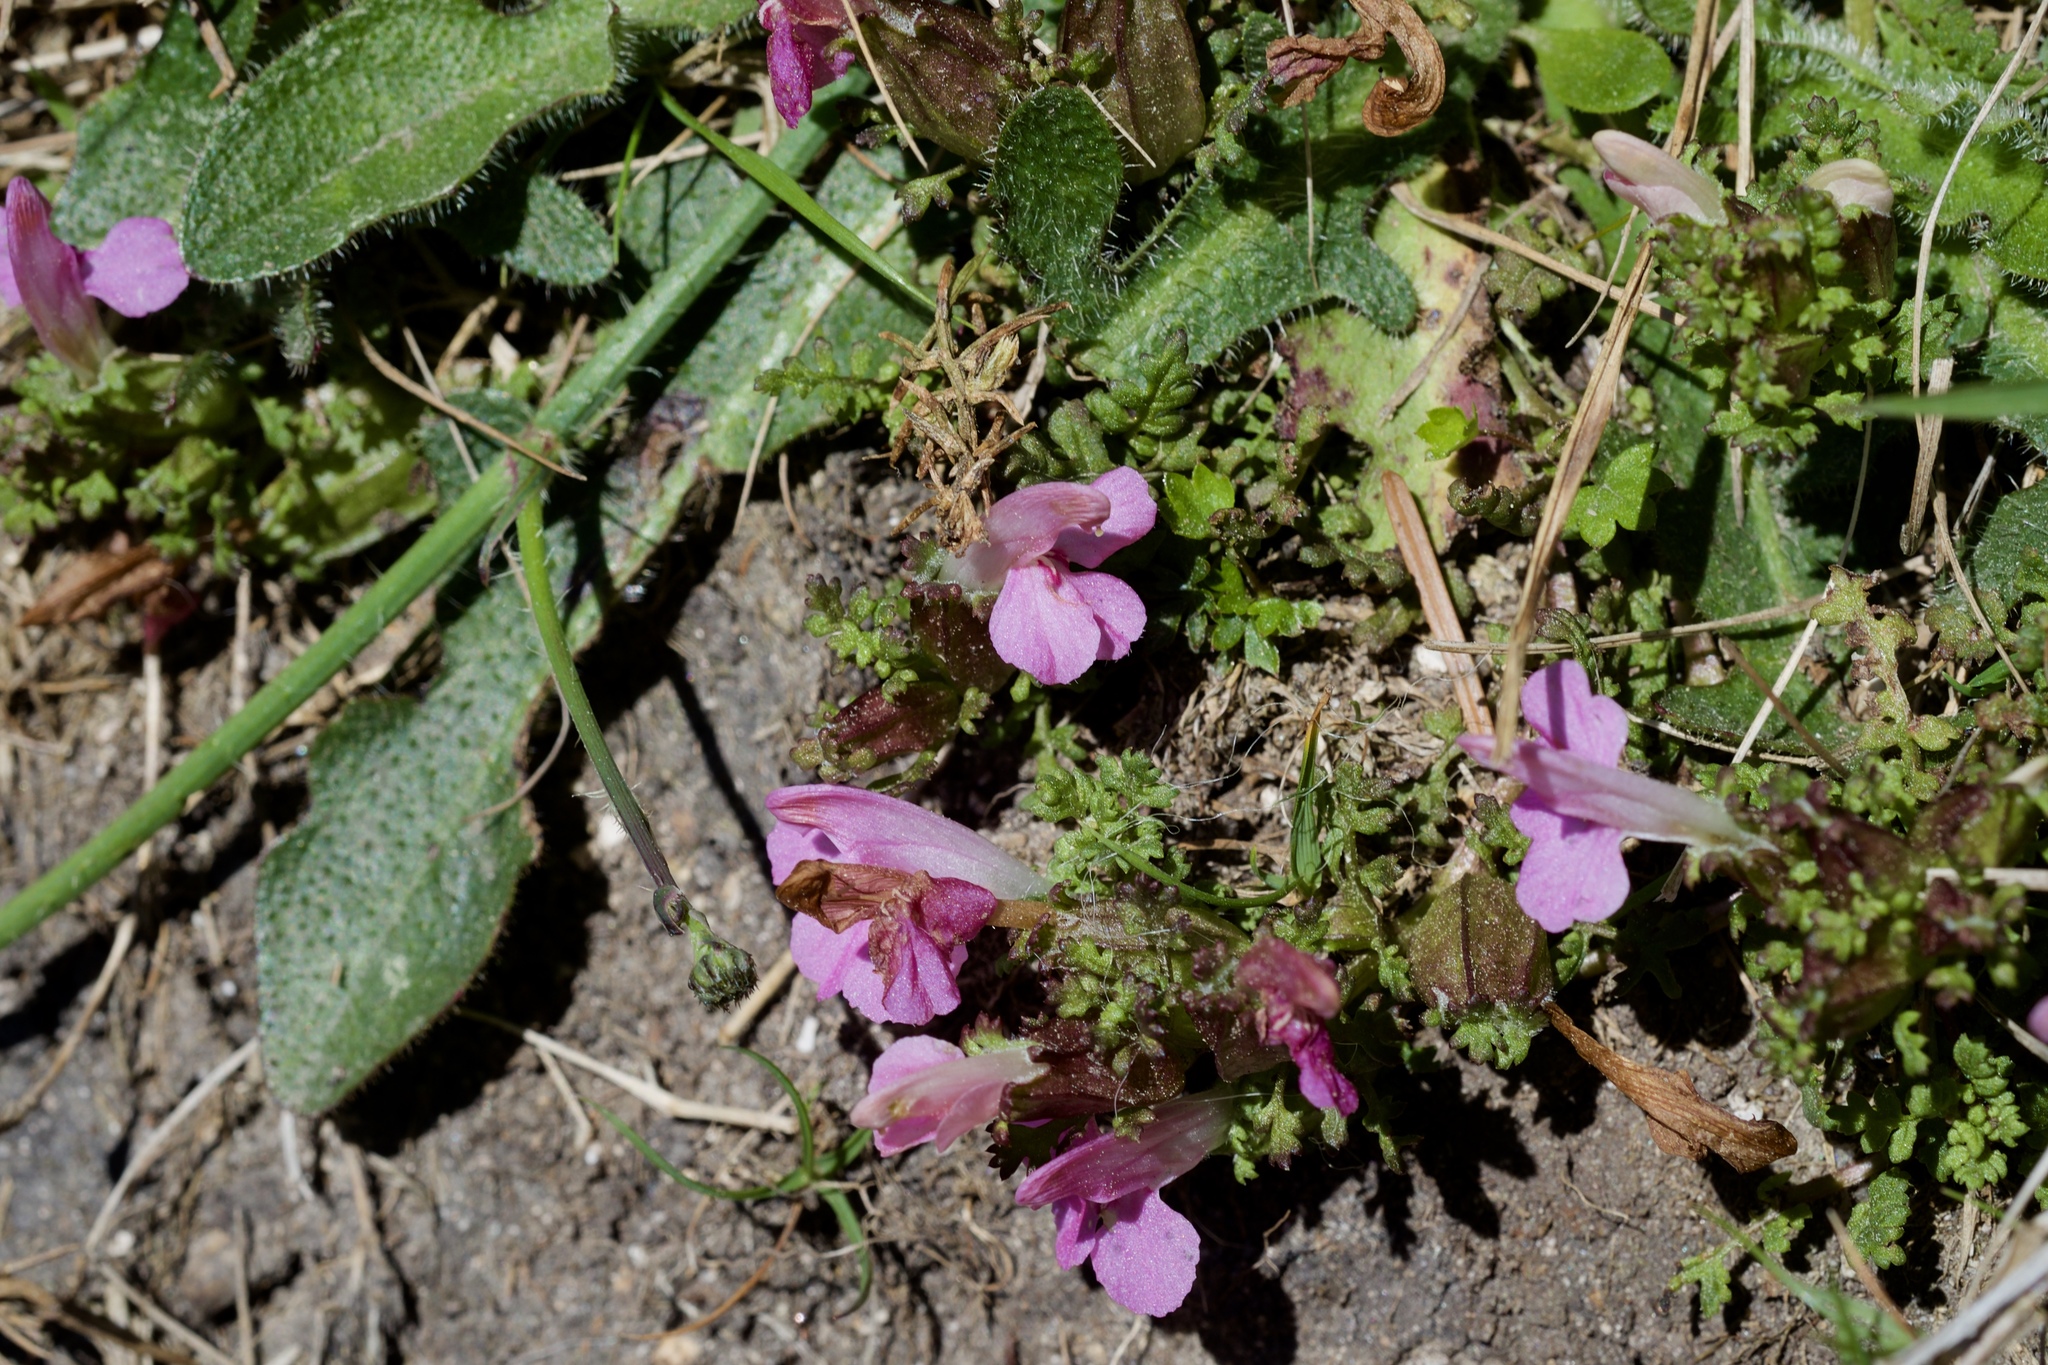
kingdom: Plantae
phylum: Tracheophyta
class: Magnoliopsida
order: Lamiales
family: Orobanchaceae
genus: Pedicularis
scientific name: Pedicularis sylvatica
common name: Lousewort
